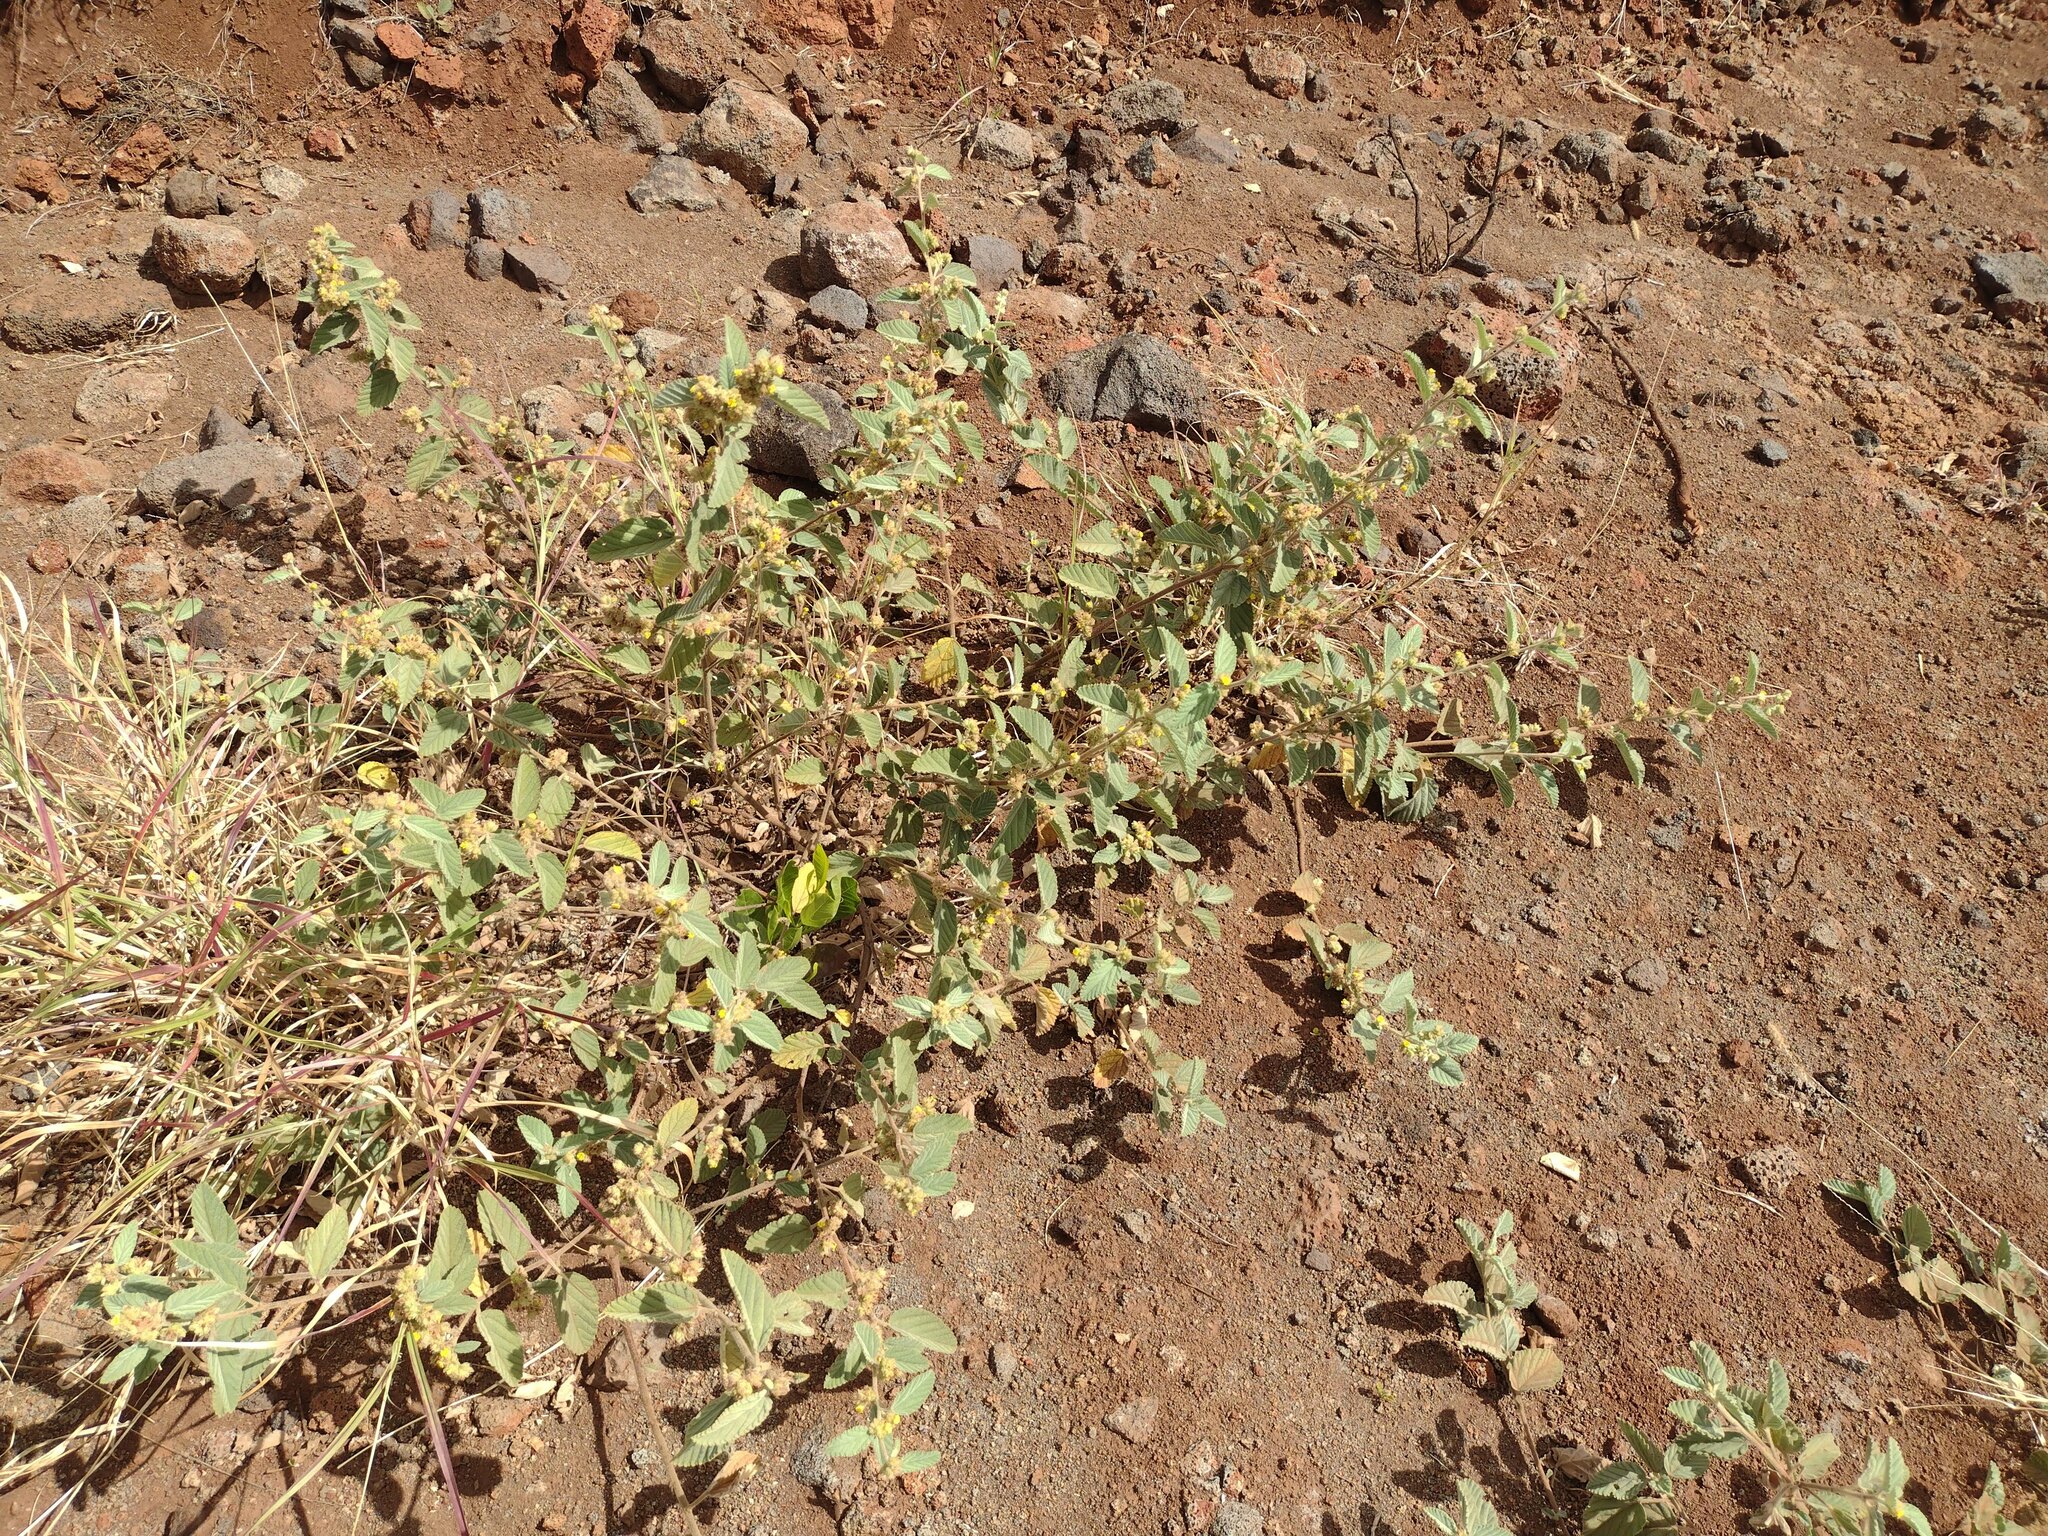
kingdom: Plantae
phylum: Tracheophyta
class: Magnoliopsida
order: Malvales
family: Malvaceae
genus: Waltheria
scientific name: Waltheria indica
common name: Leather-coat
